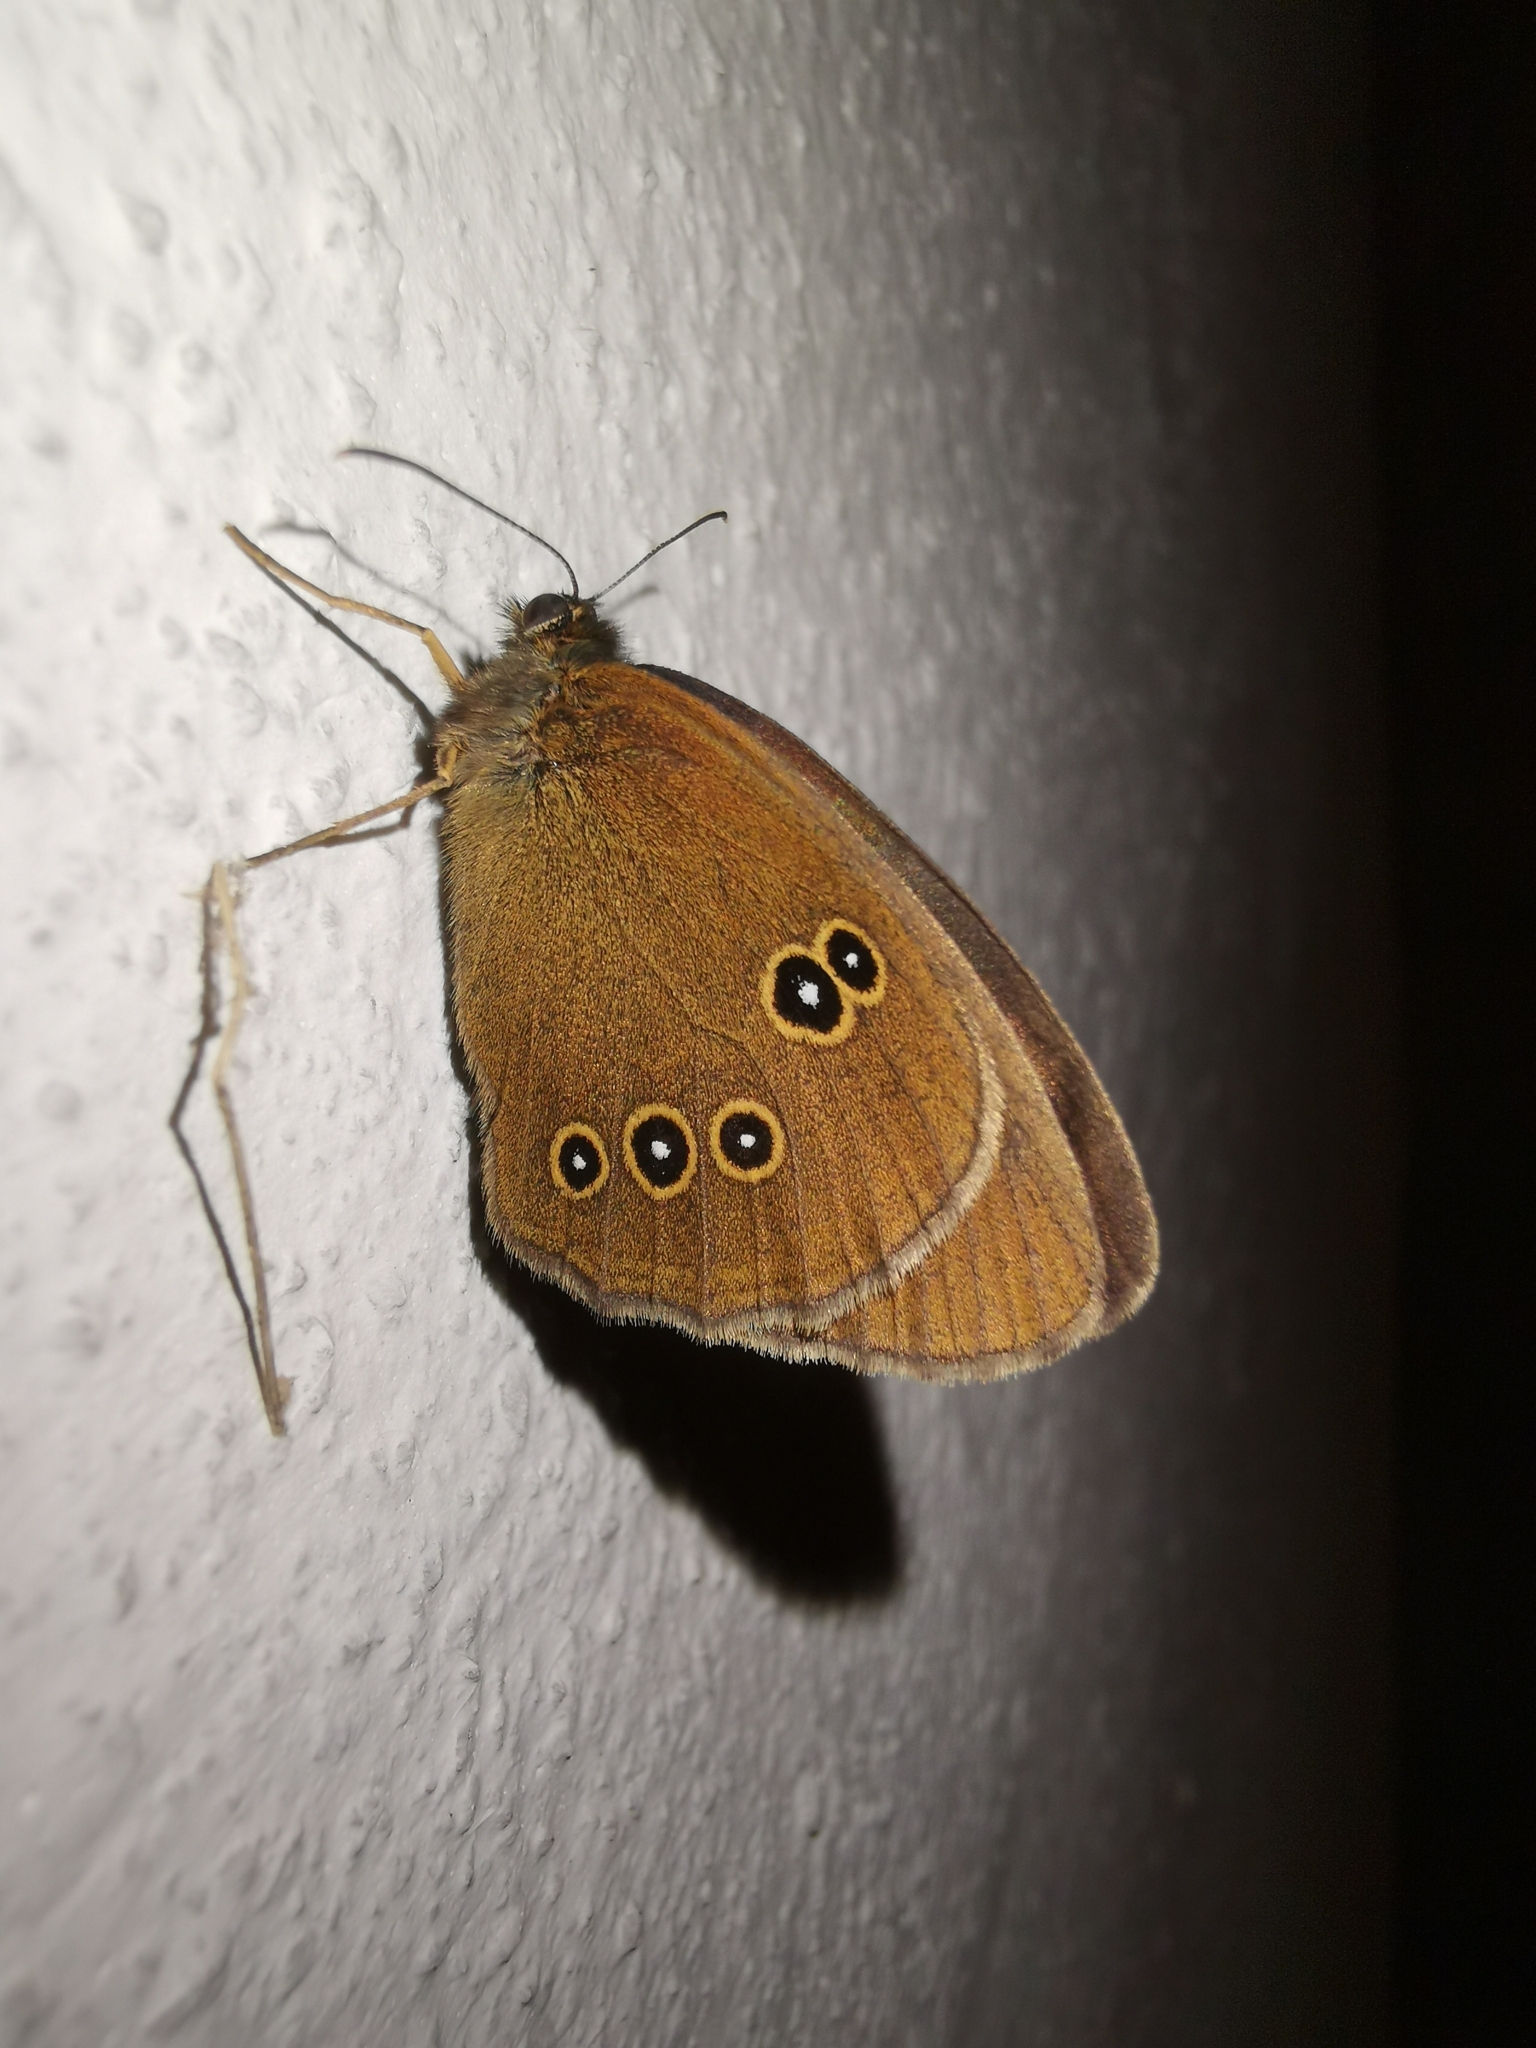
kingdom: Animalia
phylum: Arthropoda
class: Insecta
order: Lepidoptera
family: Nymphalidae
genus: Aphantopus
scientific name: Aphantopus hyperantus
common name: Ringlet
